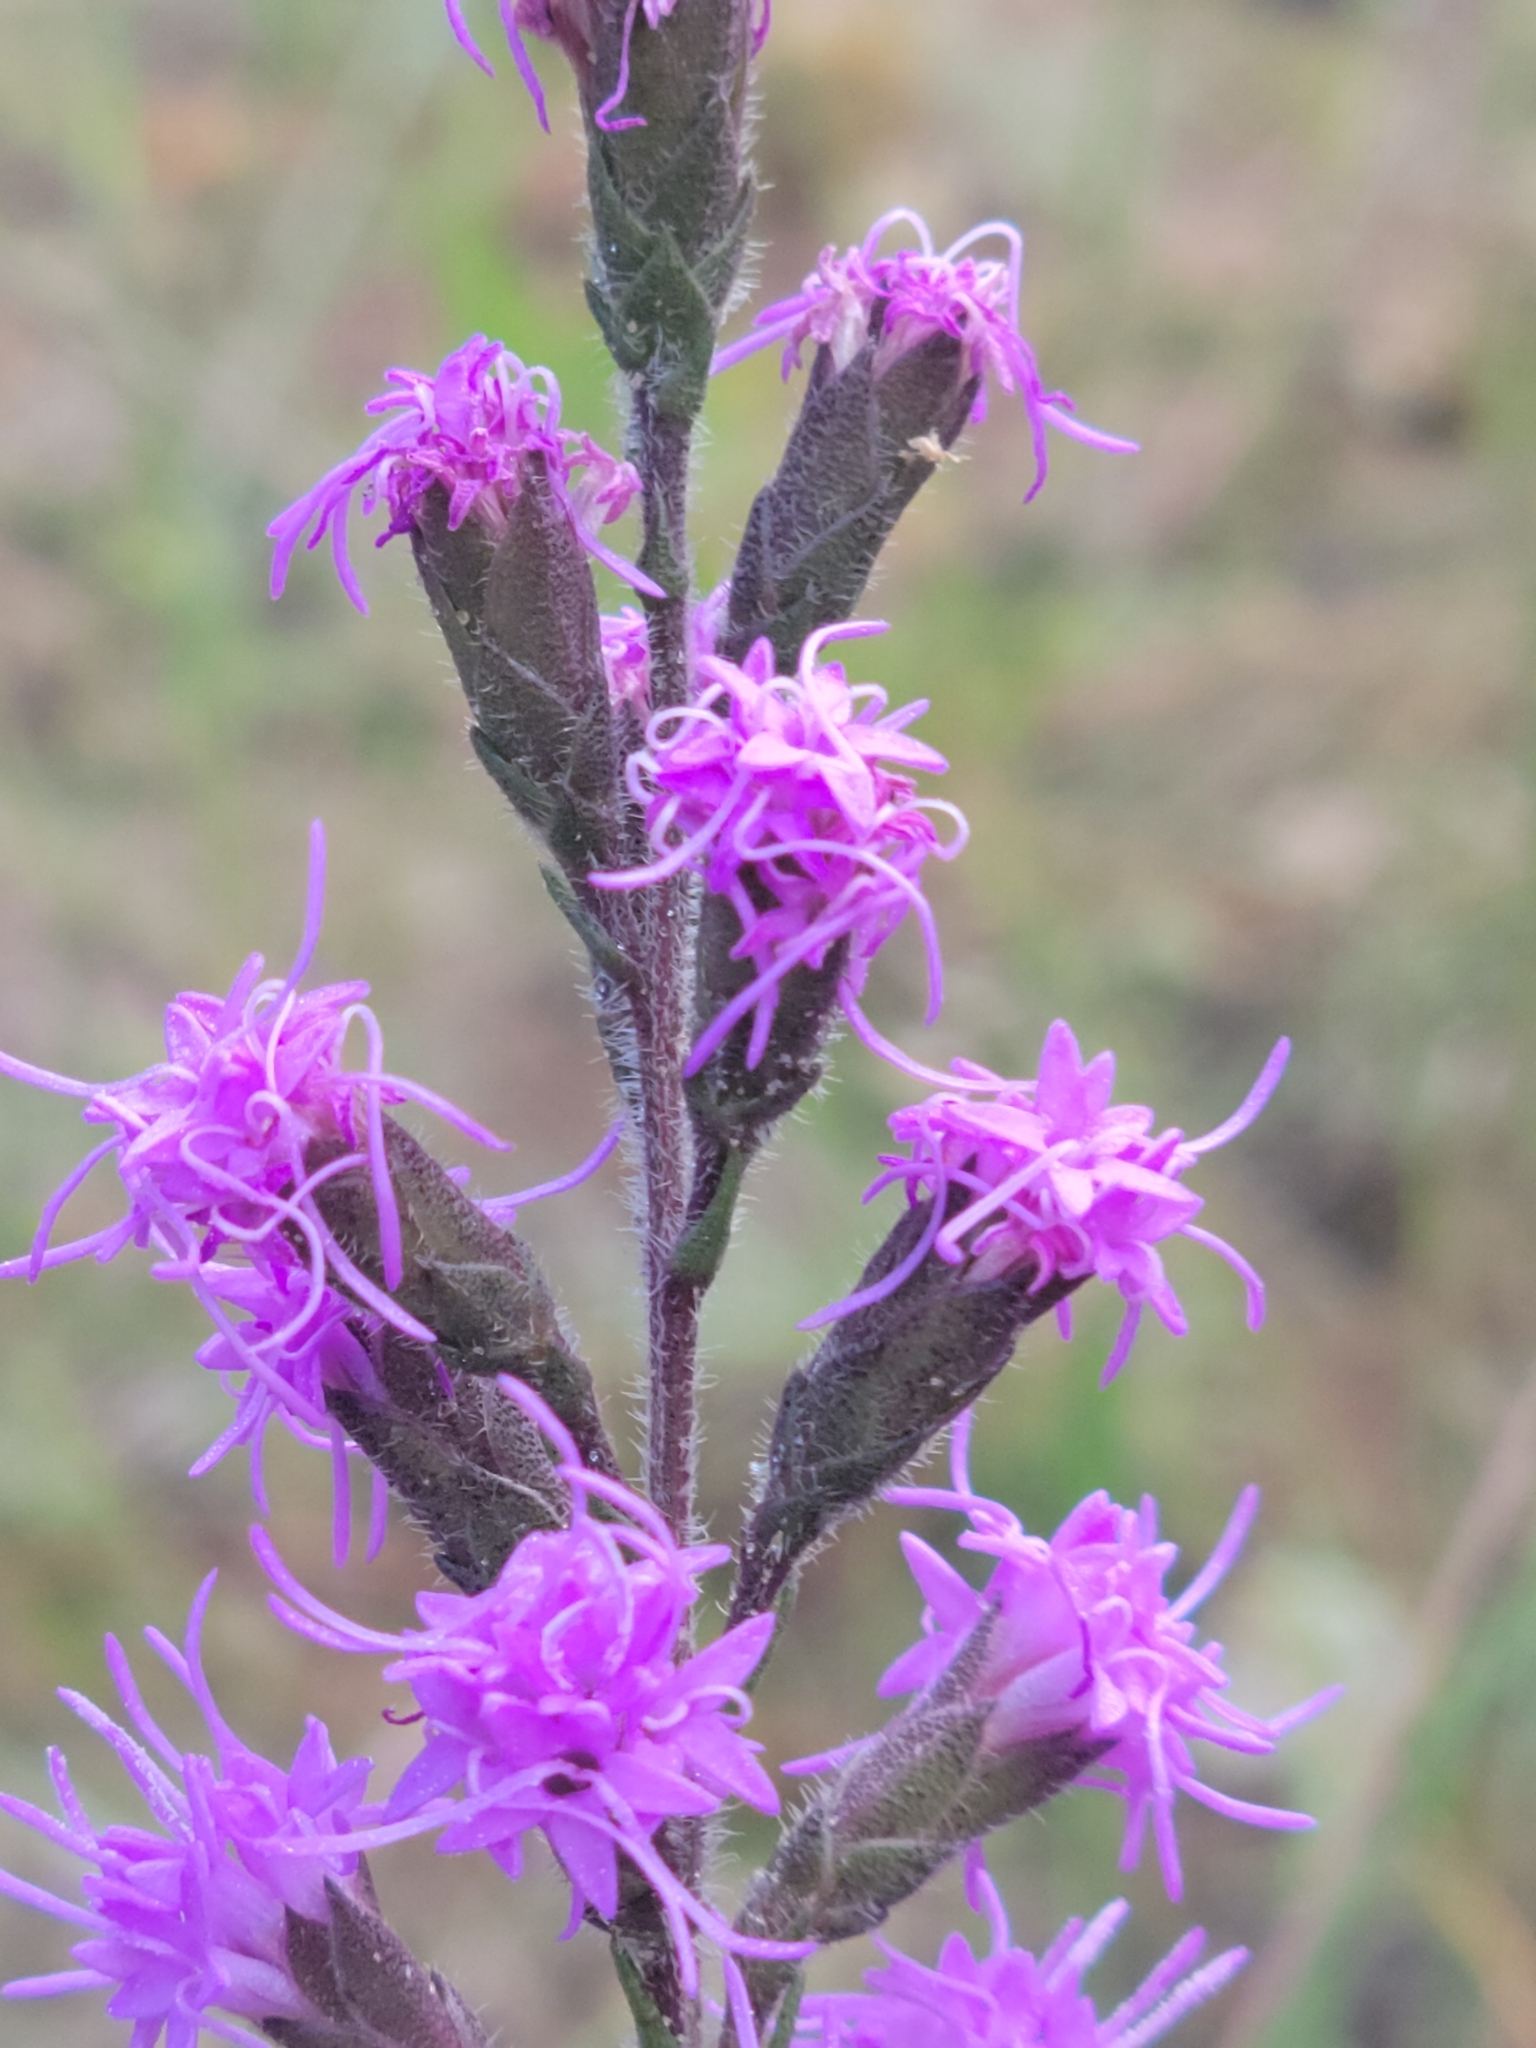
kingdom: Plantae
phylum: Tracheophyta
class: Magnoliopsida
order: Asterales
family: Asteraceae
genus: Liatris
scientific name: Liatris garberi
